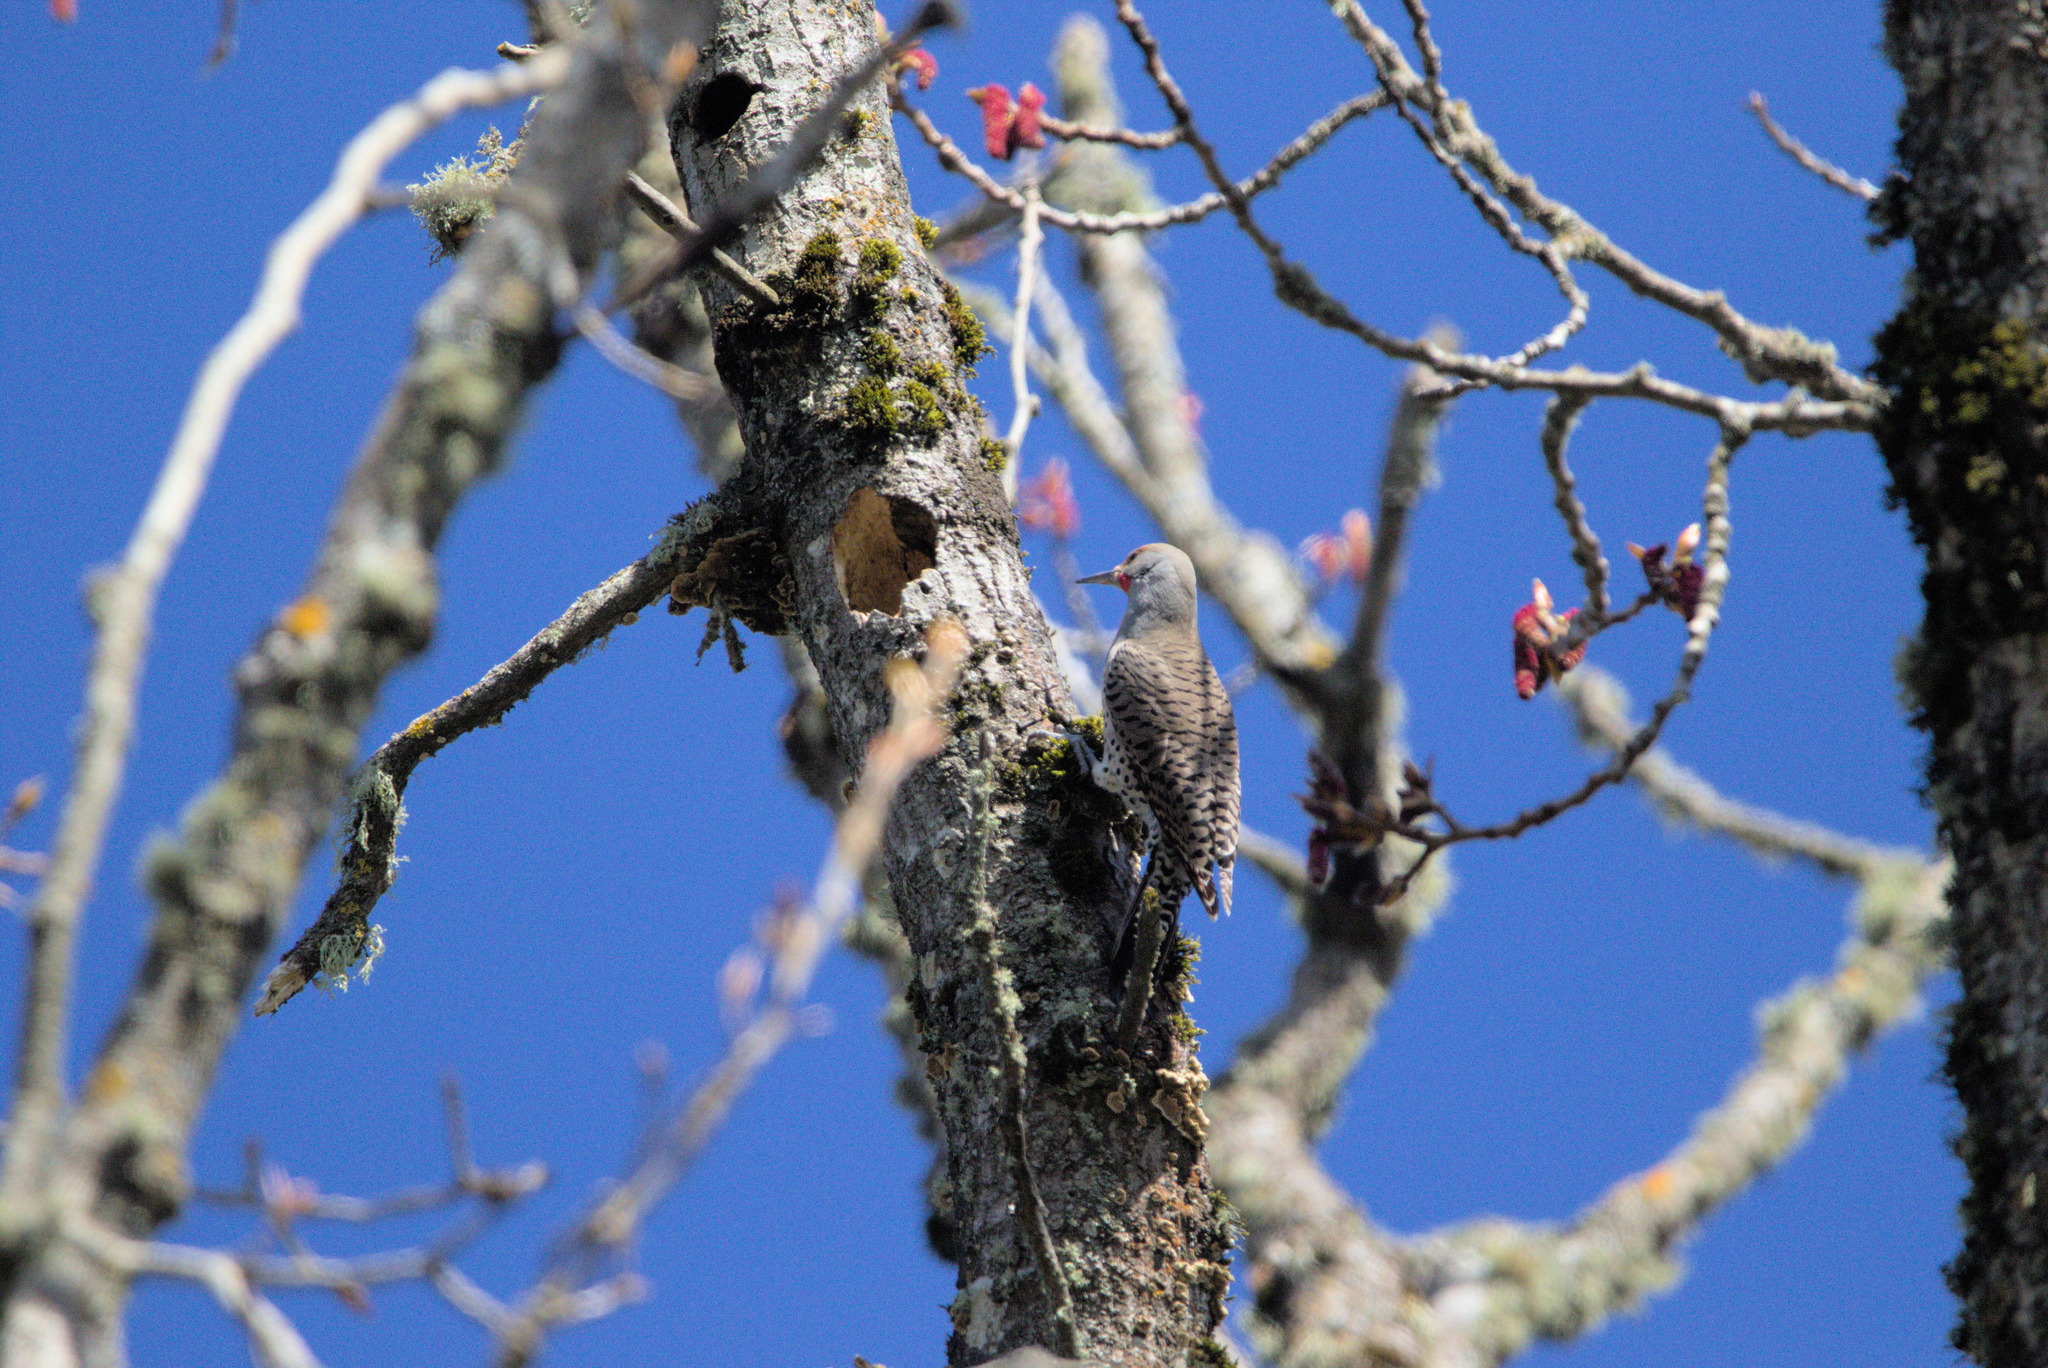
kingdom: Animalia
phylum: Chordata
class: Aves
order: Piciformes
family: Picidae
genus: Colaptes
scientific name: Colaptes auratus
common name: Northern flicker
